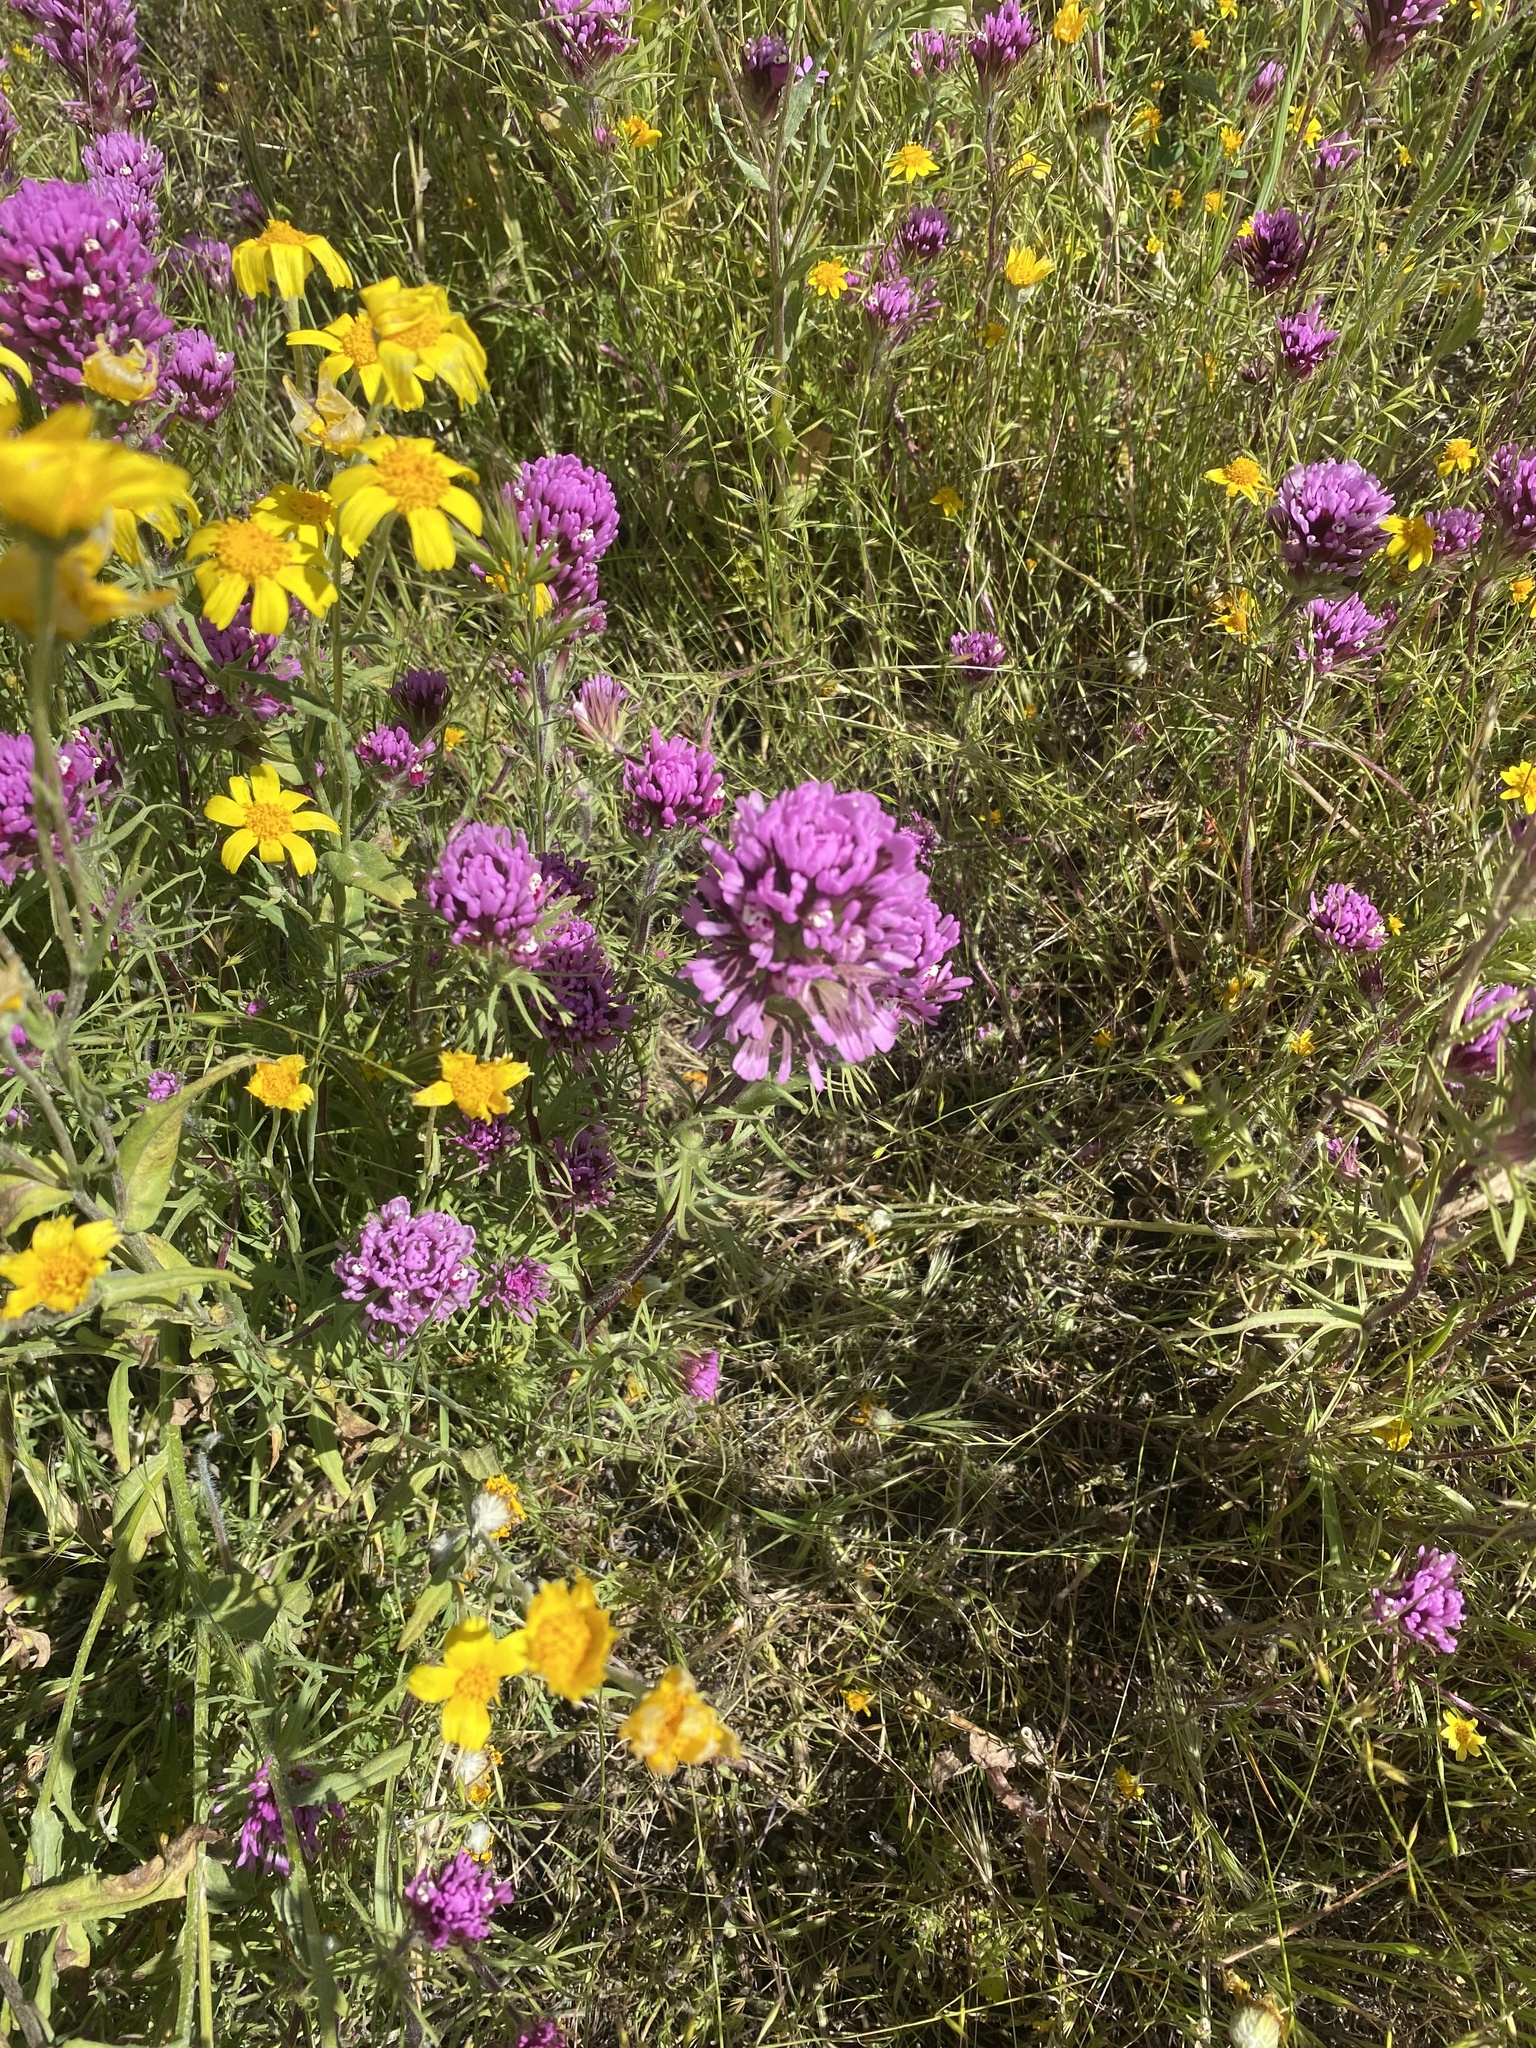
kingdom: Plantae
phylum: Tracheophyta
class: Magnoliopsida
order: Lamiales
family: Orobanchaceae
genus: Castilleja
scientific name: Castilleja exserta
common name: Purple owl-clover
